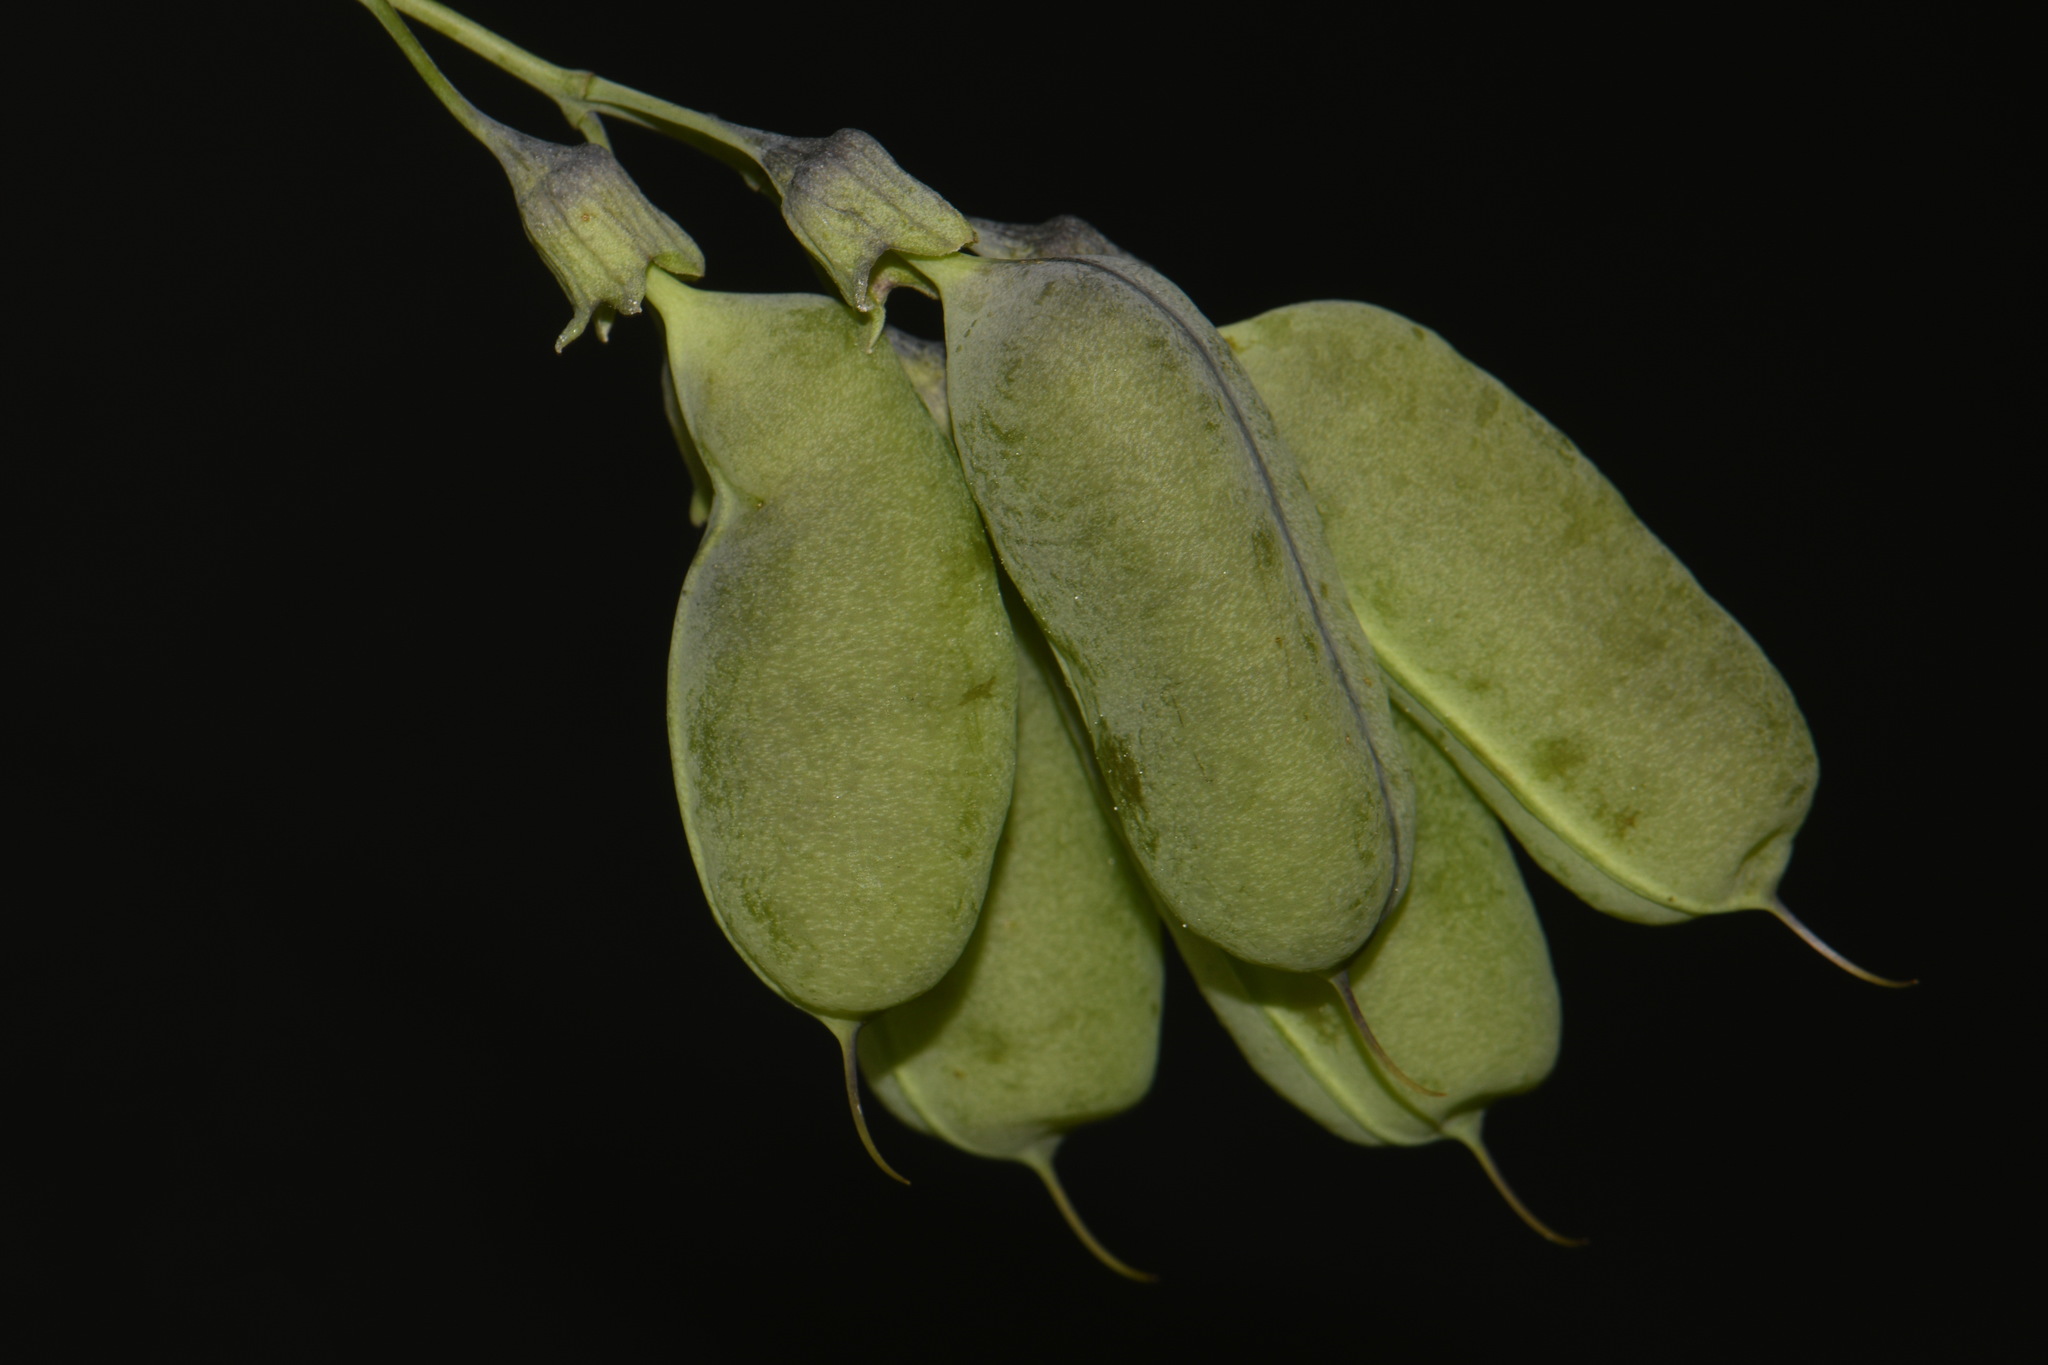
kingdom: Plantae
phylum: Tracheophyta
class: Magnoliopsida
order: Fabales
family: Fabaceae
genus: Baptisia
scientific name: Baptisia megacarpa
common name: Apalachicola wild indigo
